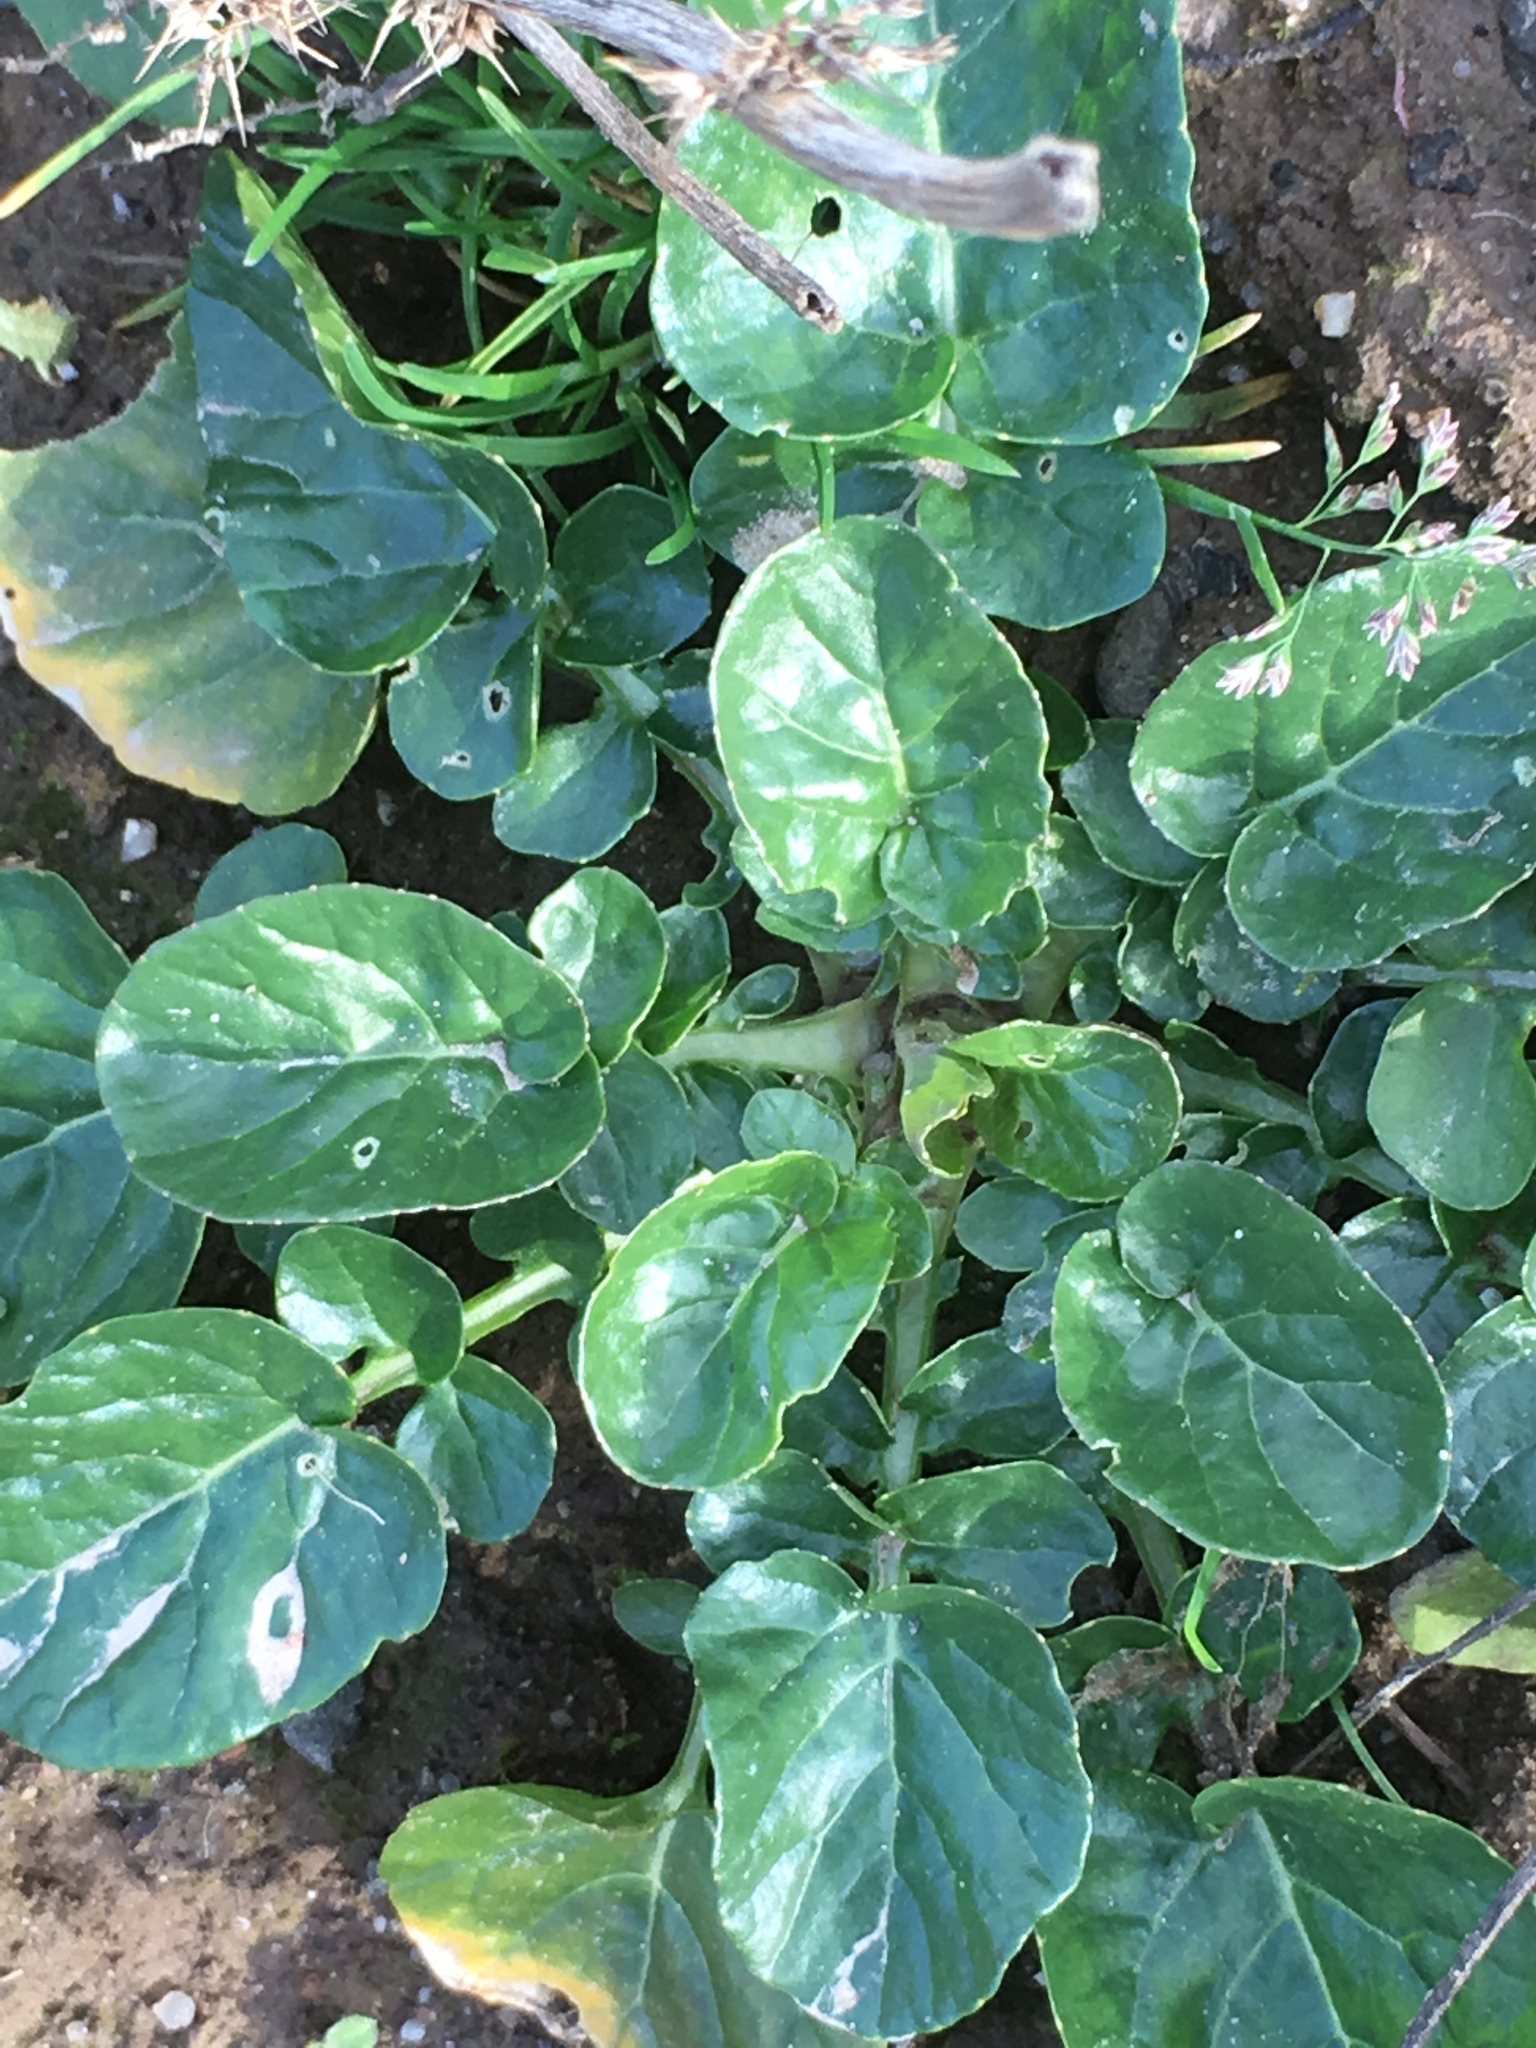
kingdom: Plantae
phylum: Tracheophyta
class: Magnoliopsida
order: Brassicales
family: Brassicaceae
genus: Barbarea
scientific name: Barbarea vulgaris
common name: Cressy-greens
